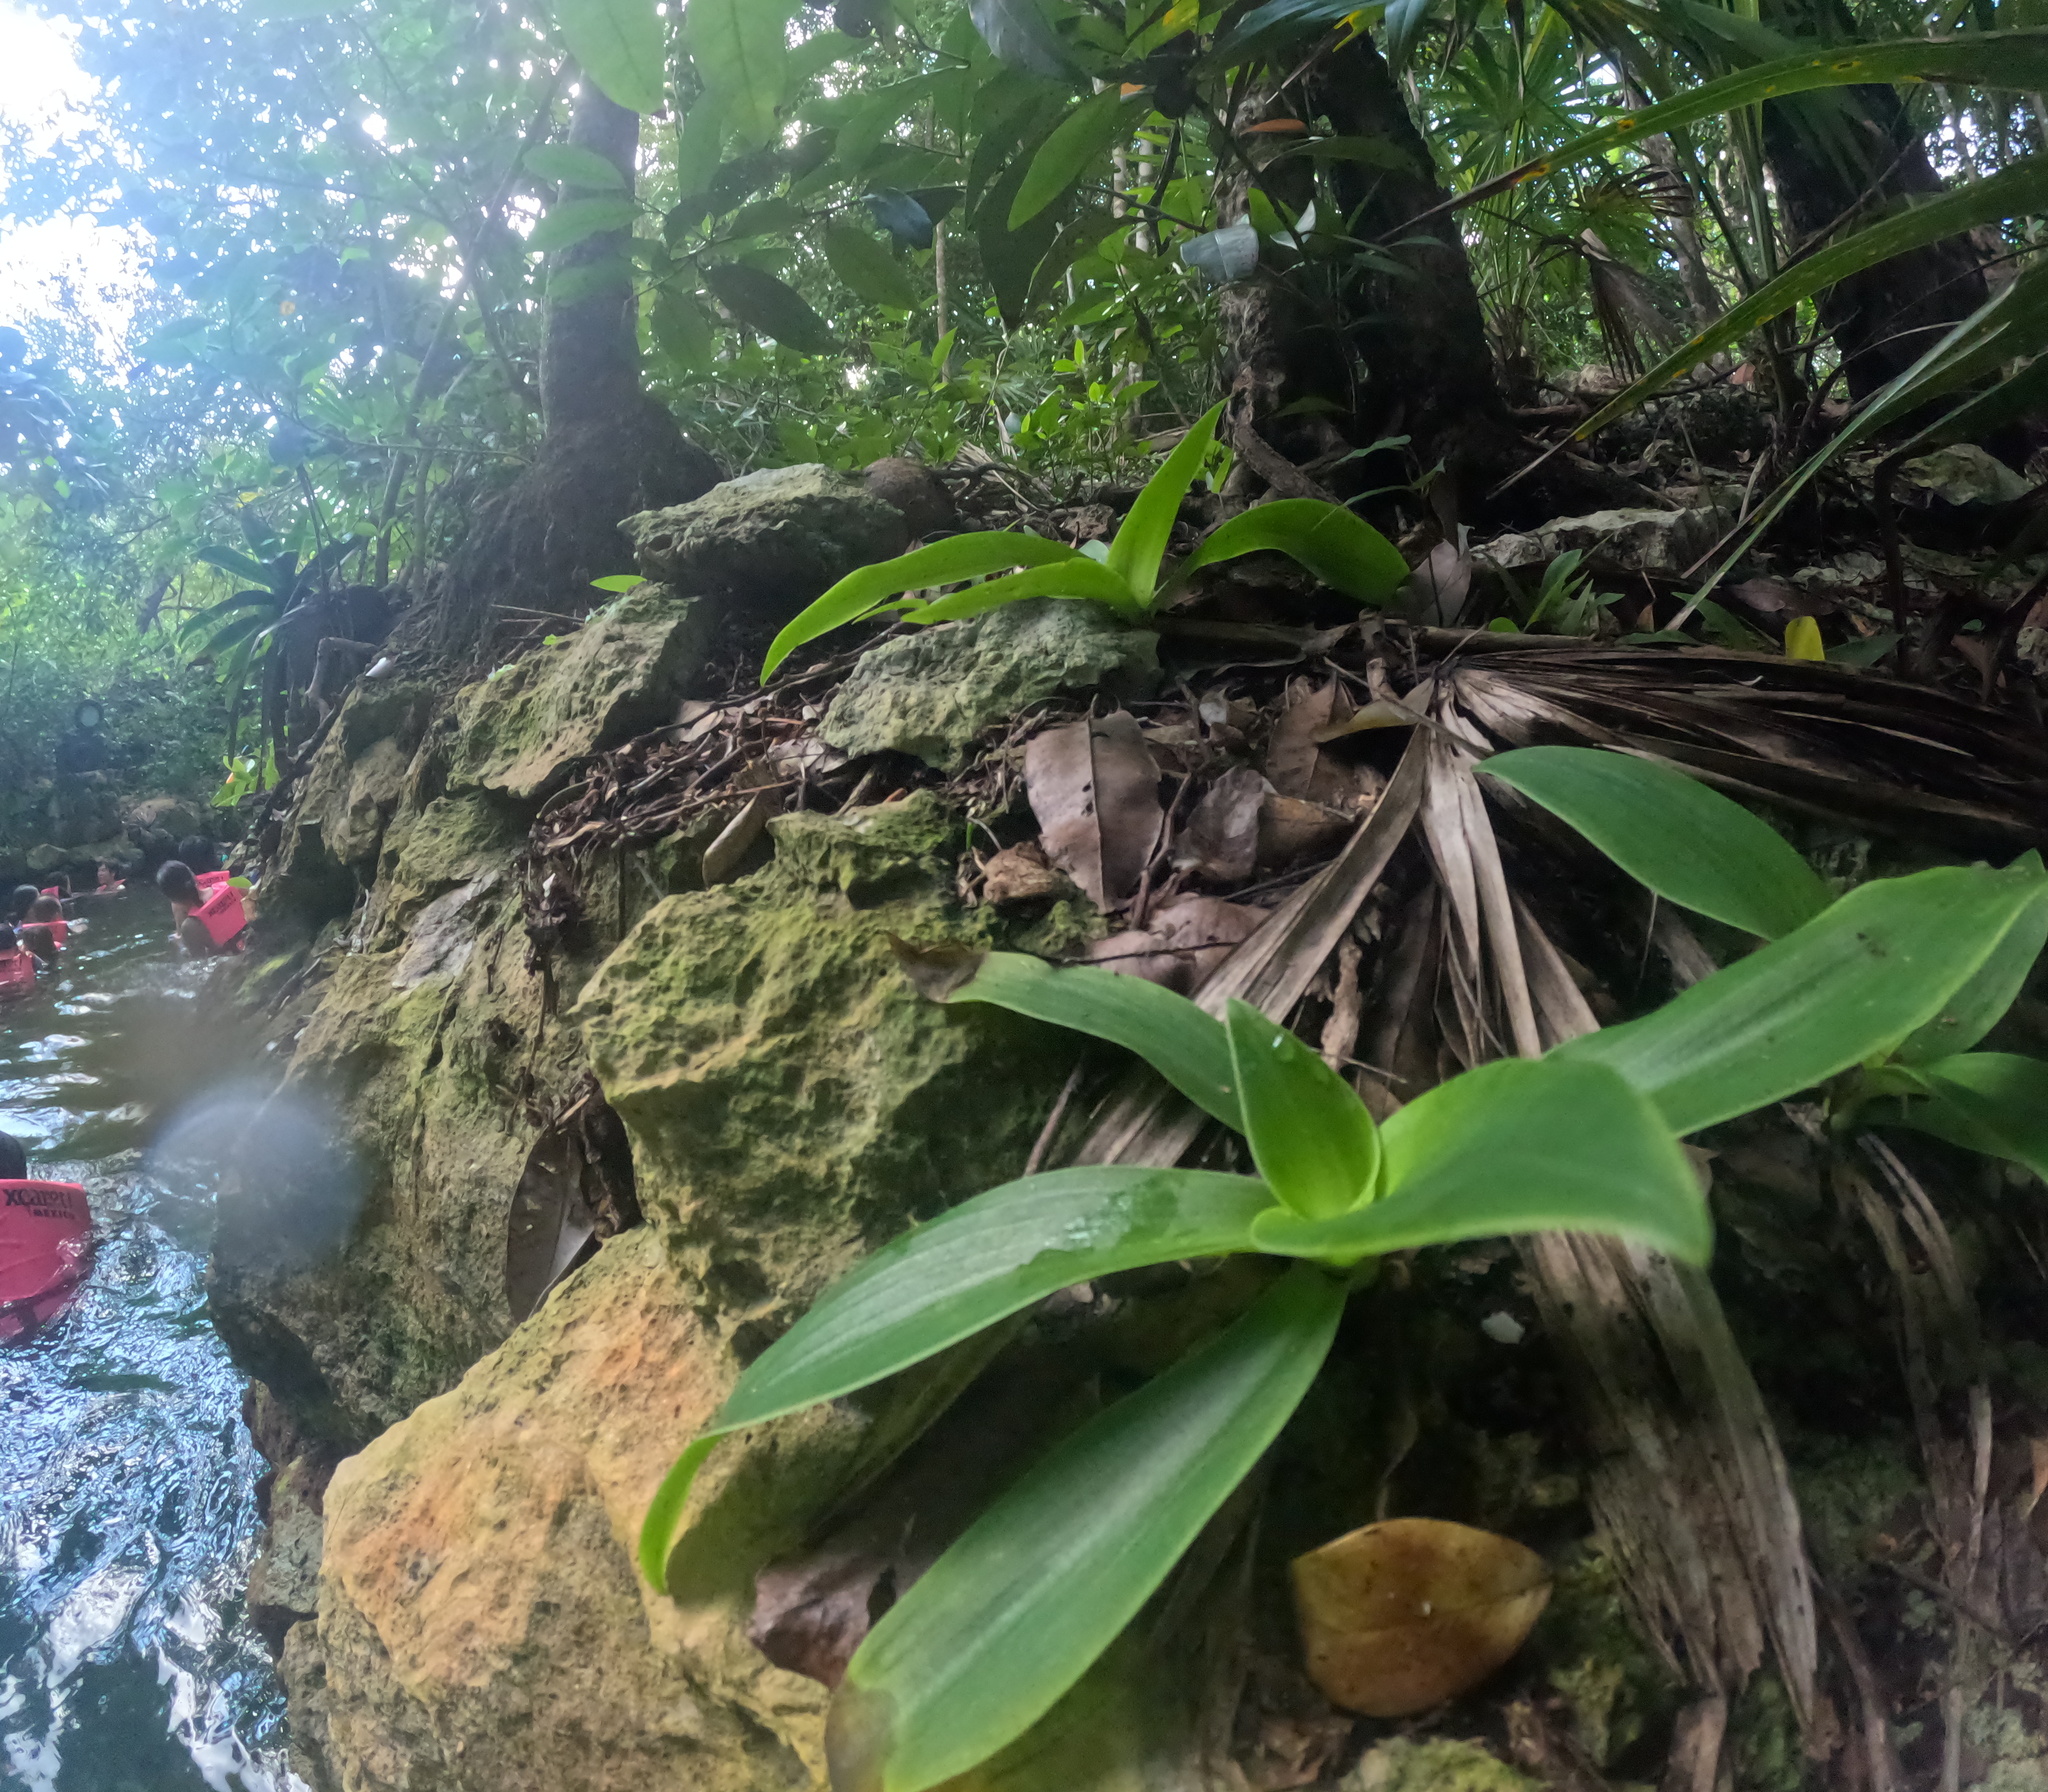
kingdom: Plantae
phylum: Tracheophyta
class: Liliopsida
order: Commelinales
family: Commelinaceae
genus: Callisia
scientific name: Callisia fragrans
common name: Basketplant
